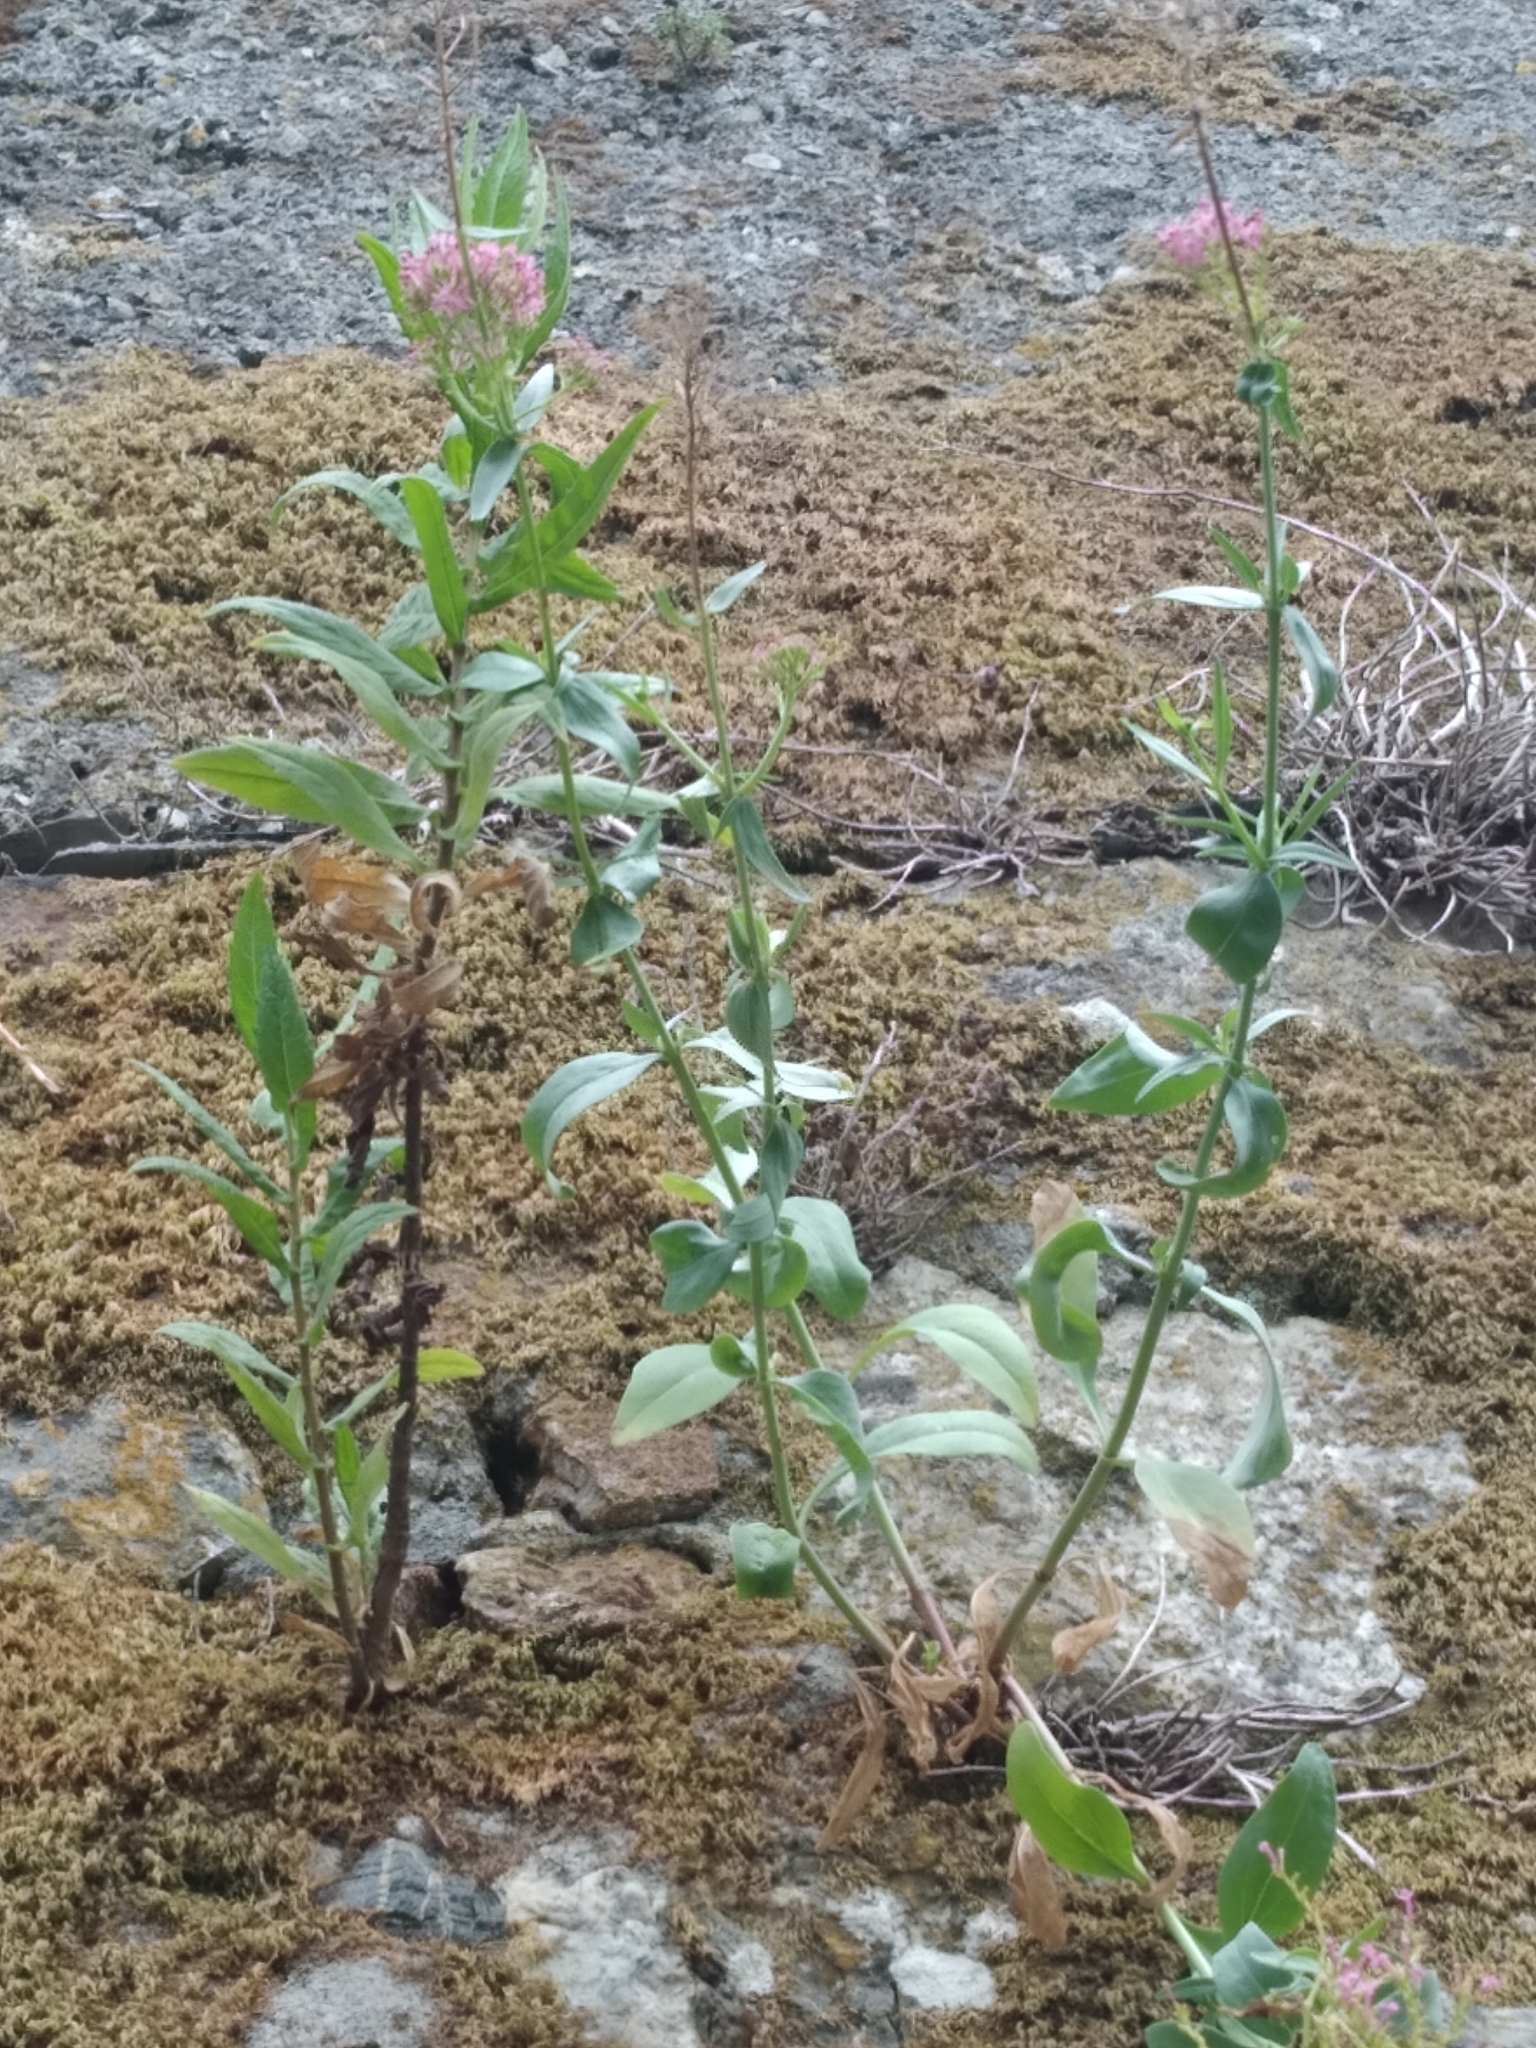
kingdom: Plantae
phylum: Tracheophyta
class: Magnoliopsida
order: Dipsacales
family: Caprifoliaceae
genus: Centranthus
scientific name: Centranthus ruber
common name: Red valerian
